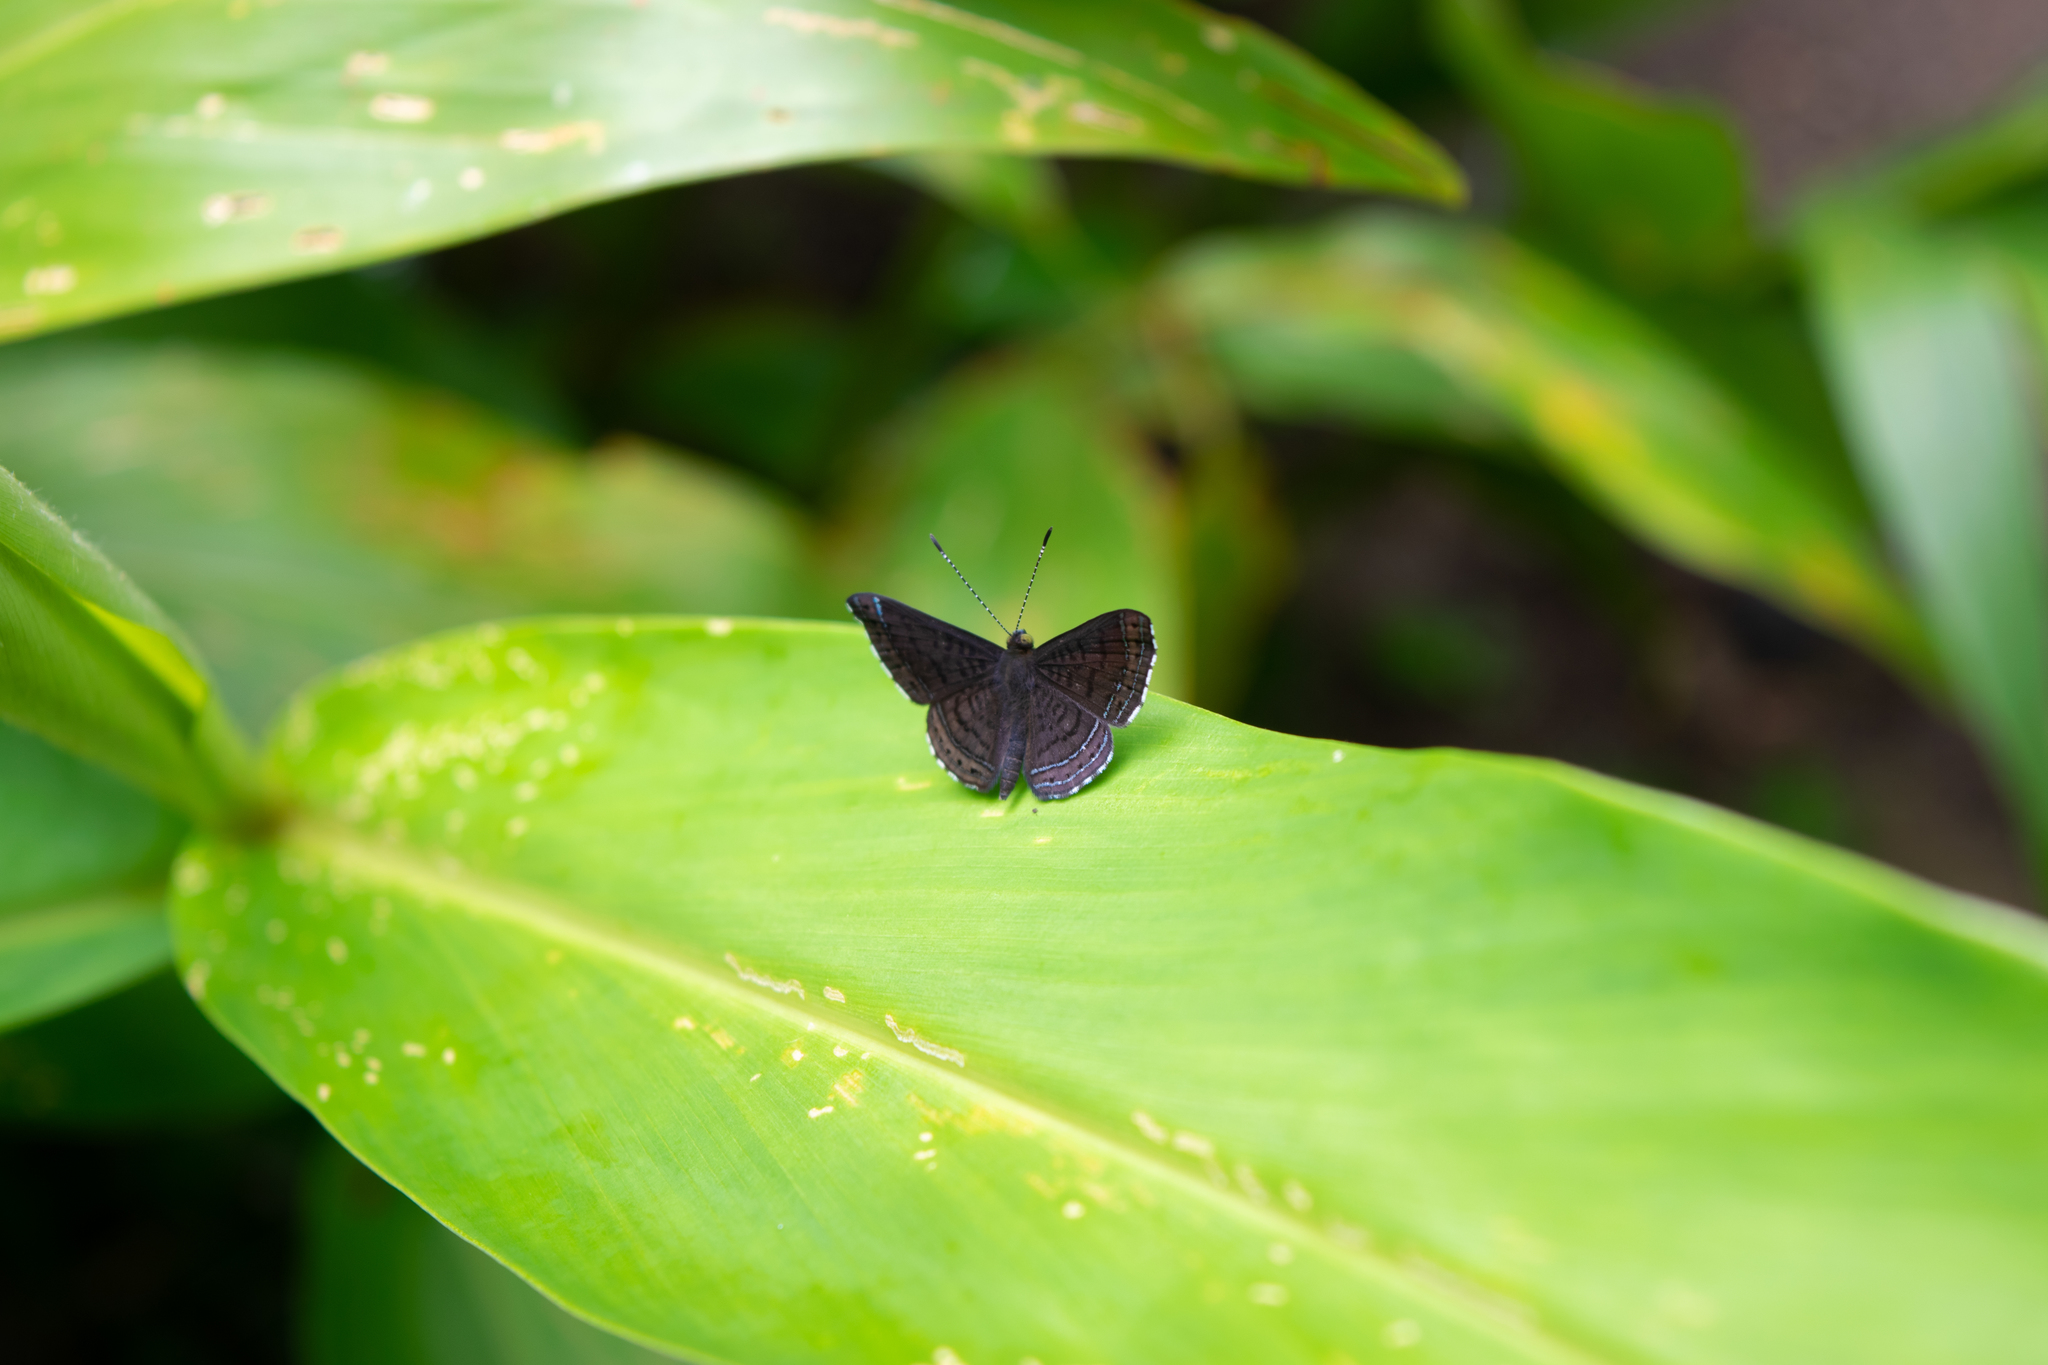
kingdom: Animalia
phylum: Arthropoda
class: Insecta
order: Lepidoptera
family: Riodinidae
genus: Detritivora
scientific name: Detritivora hermodora
